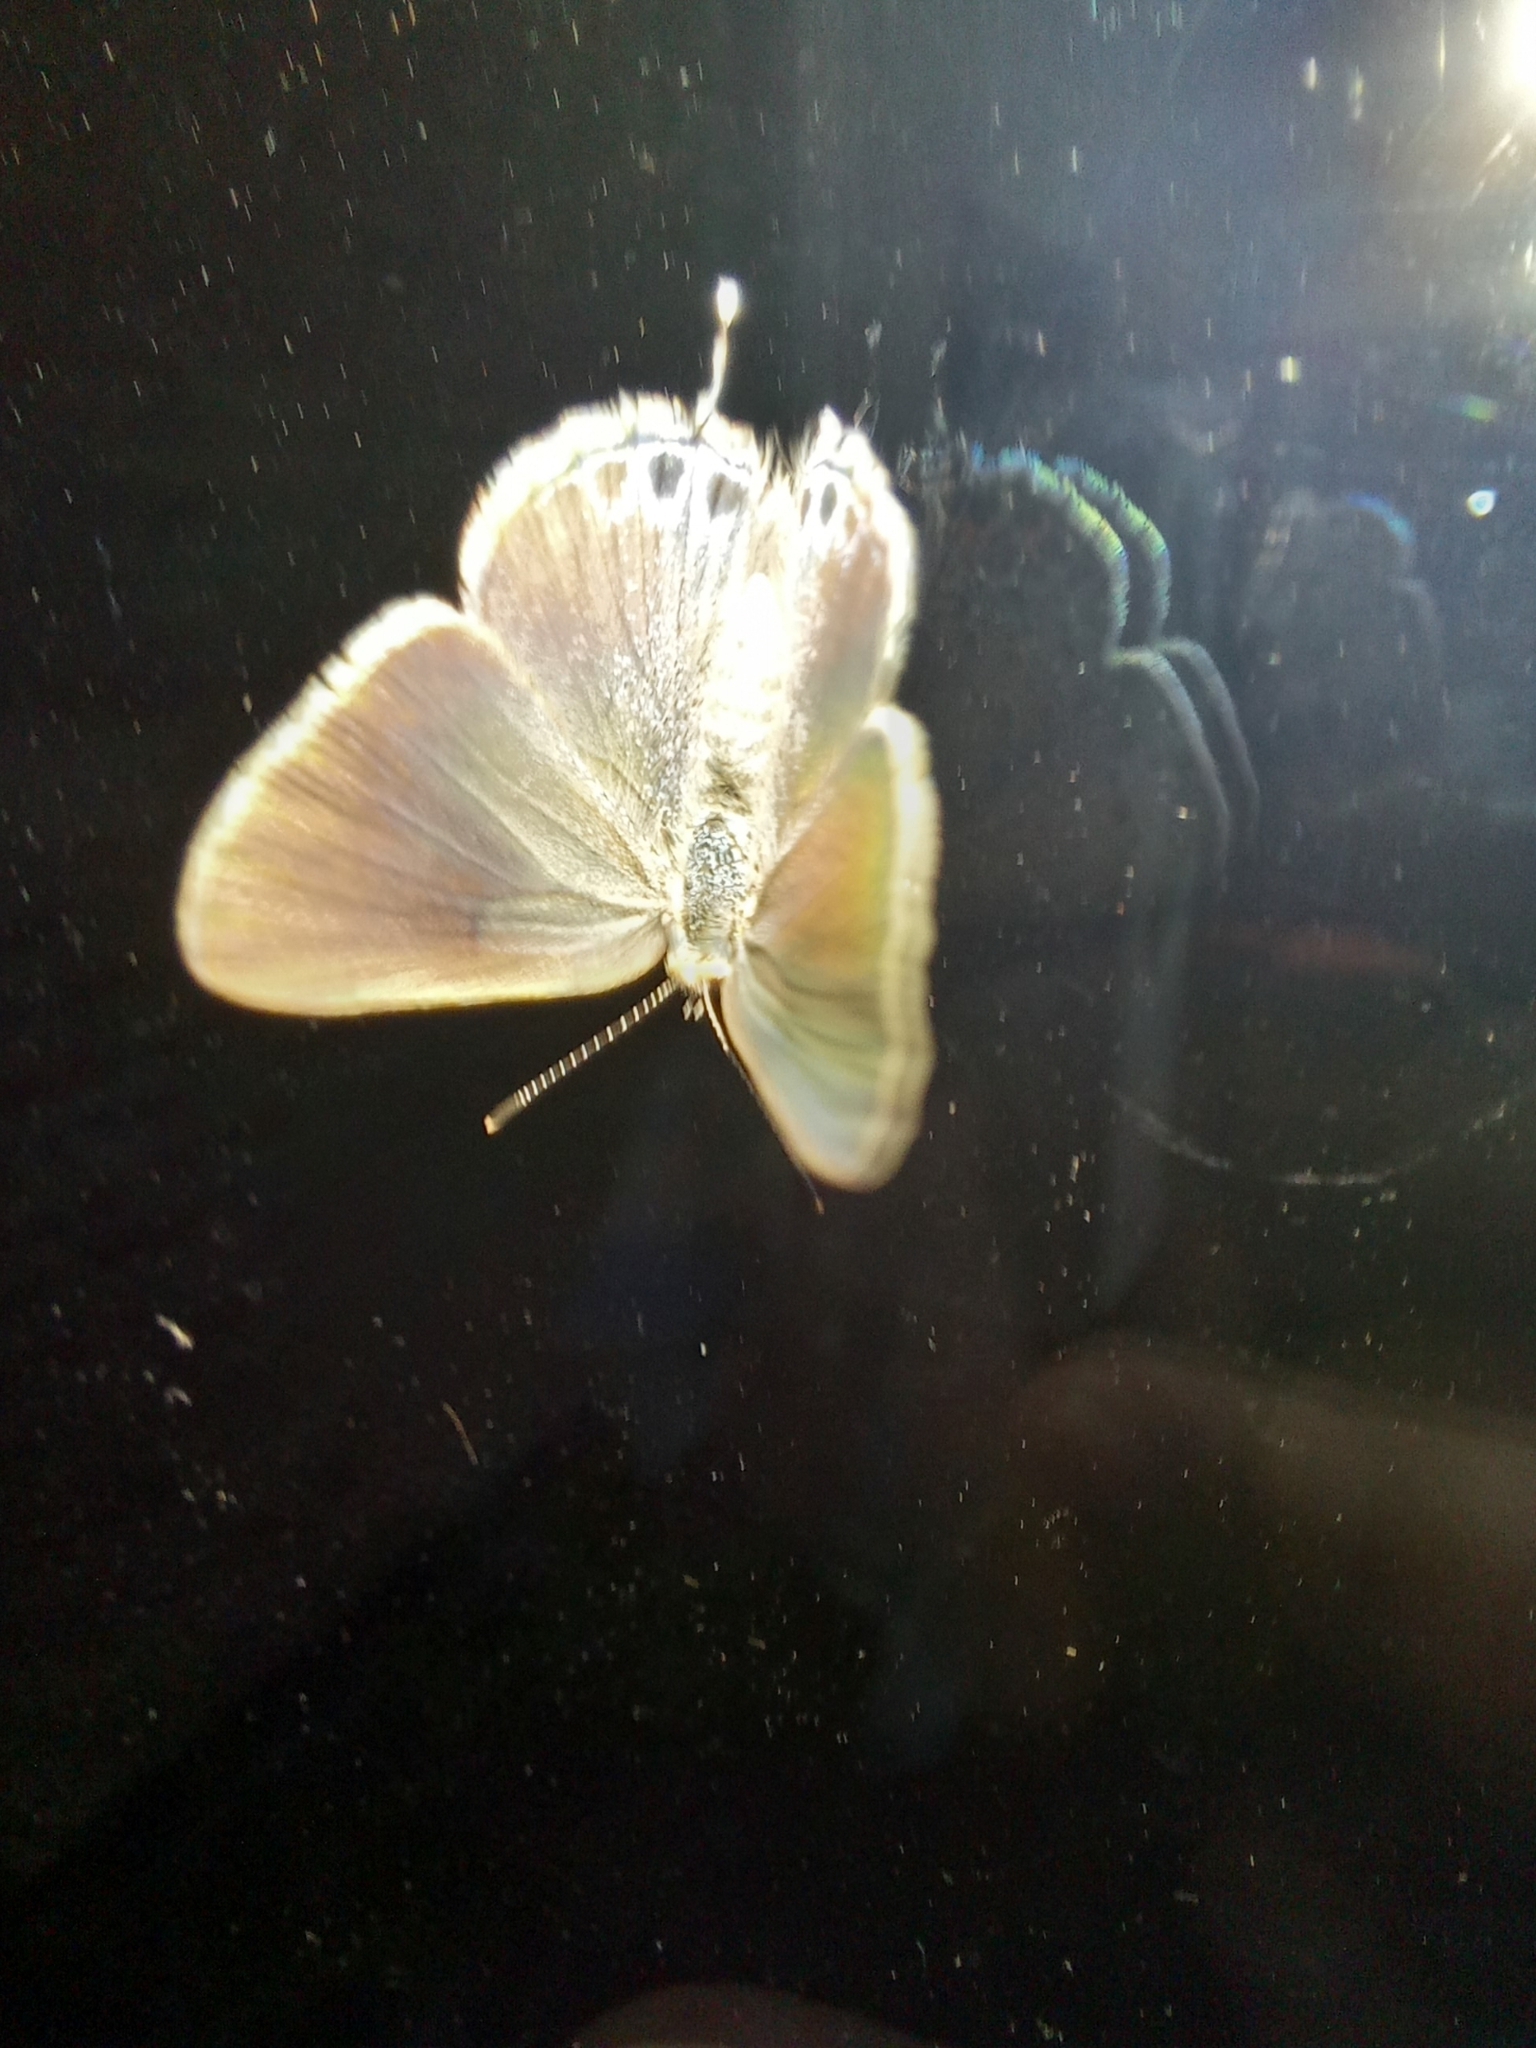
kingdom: Animalia
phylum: Arthropoda
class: Insecta
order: Lepidoptera
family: Lycaenidae
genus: Strymon
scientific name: Strymon eurytulus
